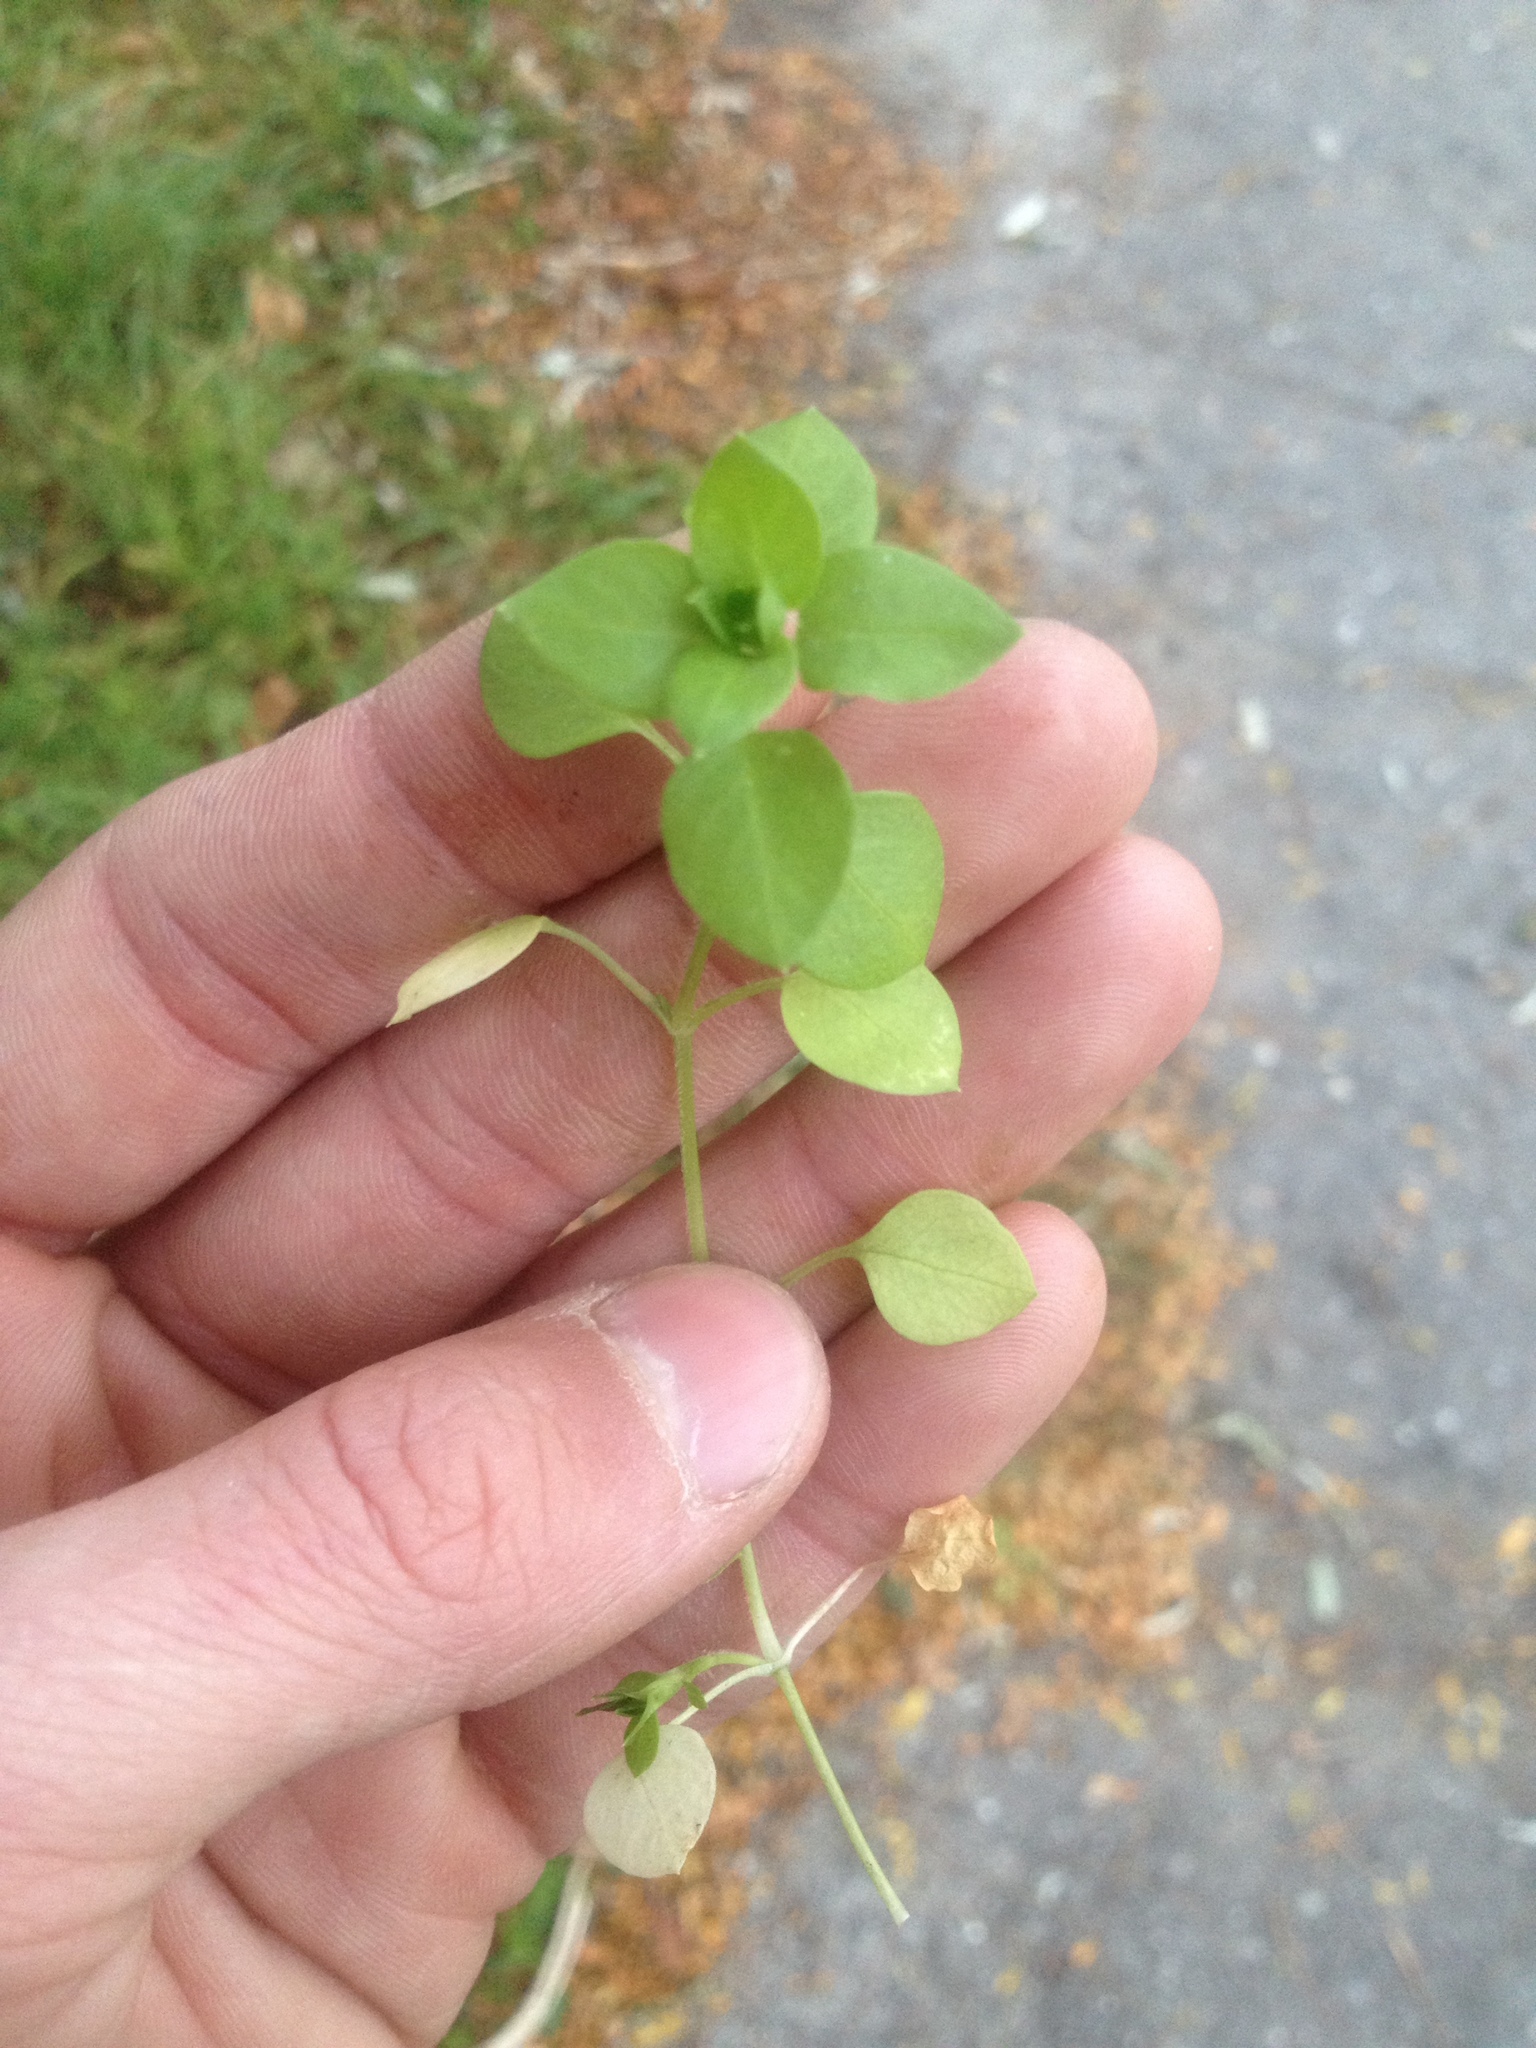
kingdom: Plantae
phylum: Tracheophyta
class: Magnoliopsida
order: Caryophyllales
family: Caryophyllaceae
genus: Stellaria
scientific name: Stellaria media
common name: Common chickweed
